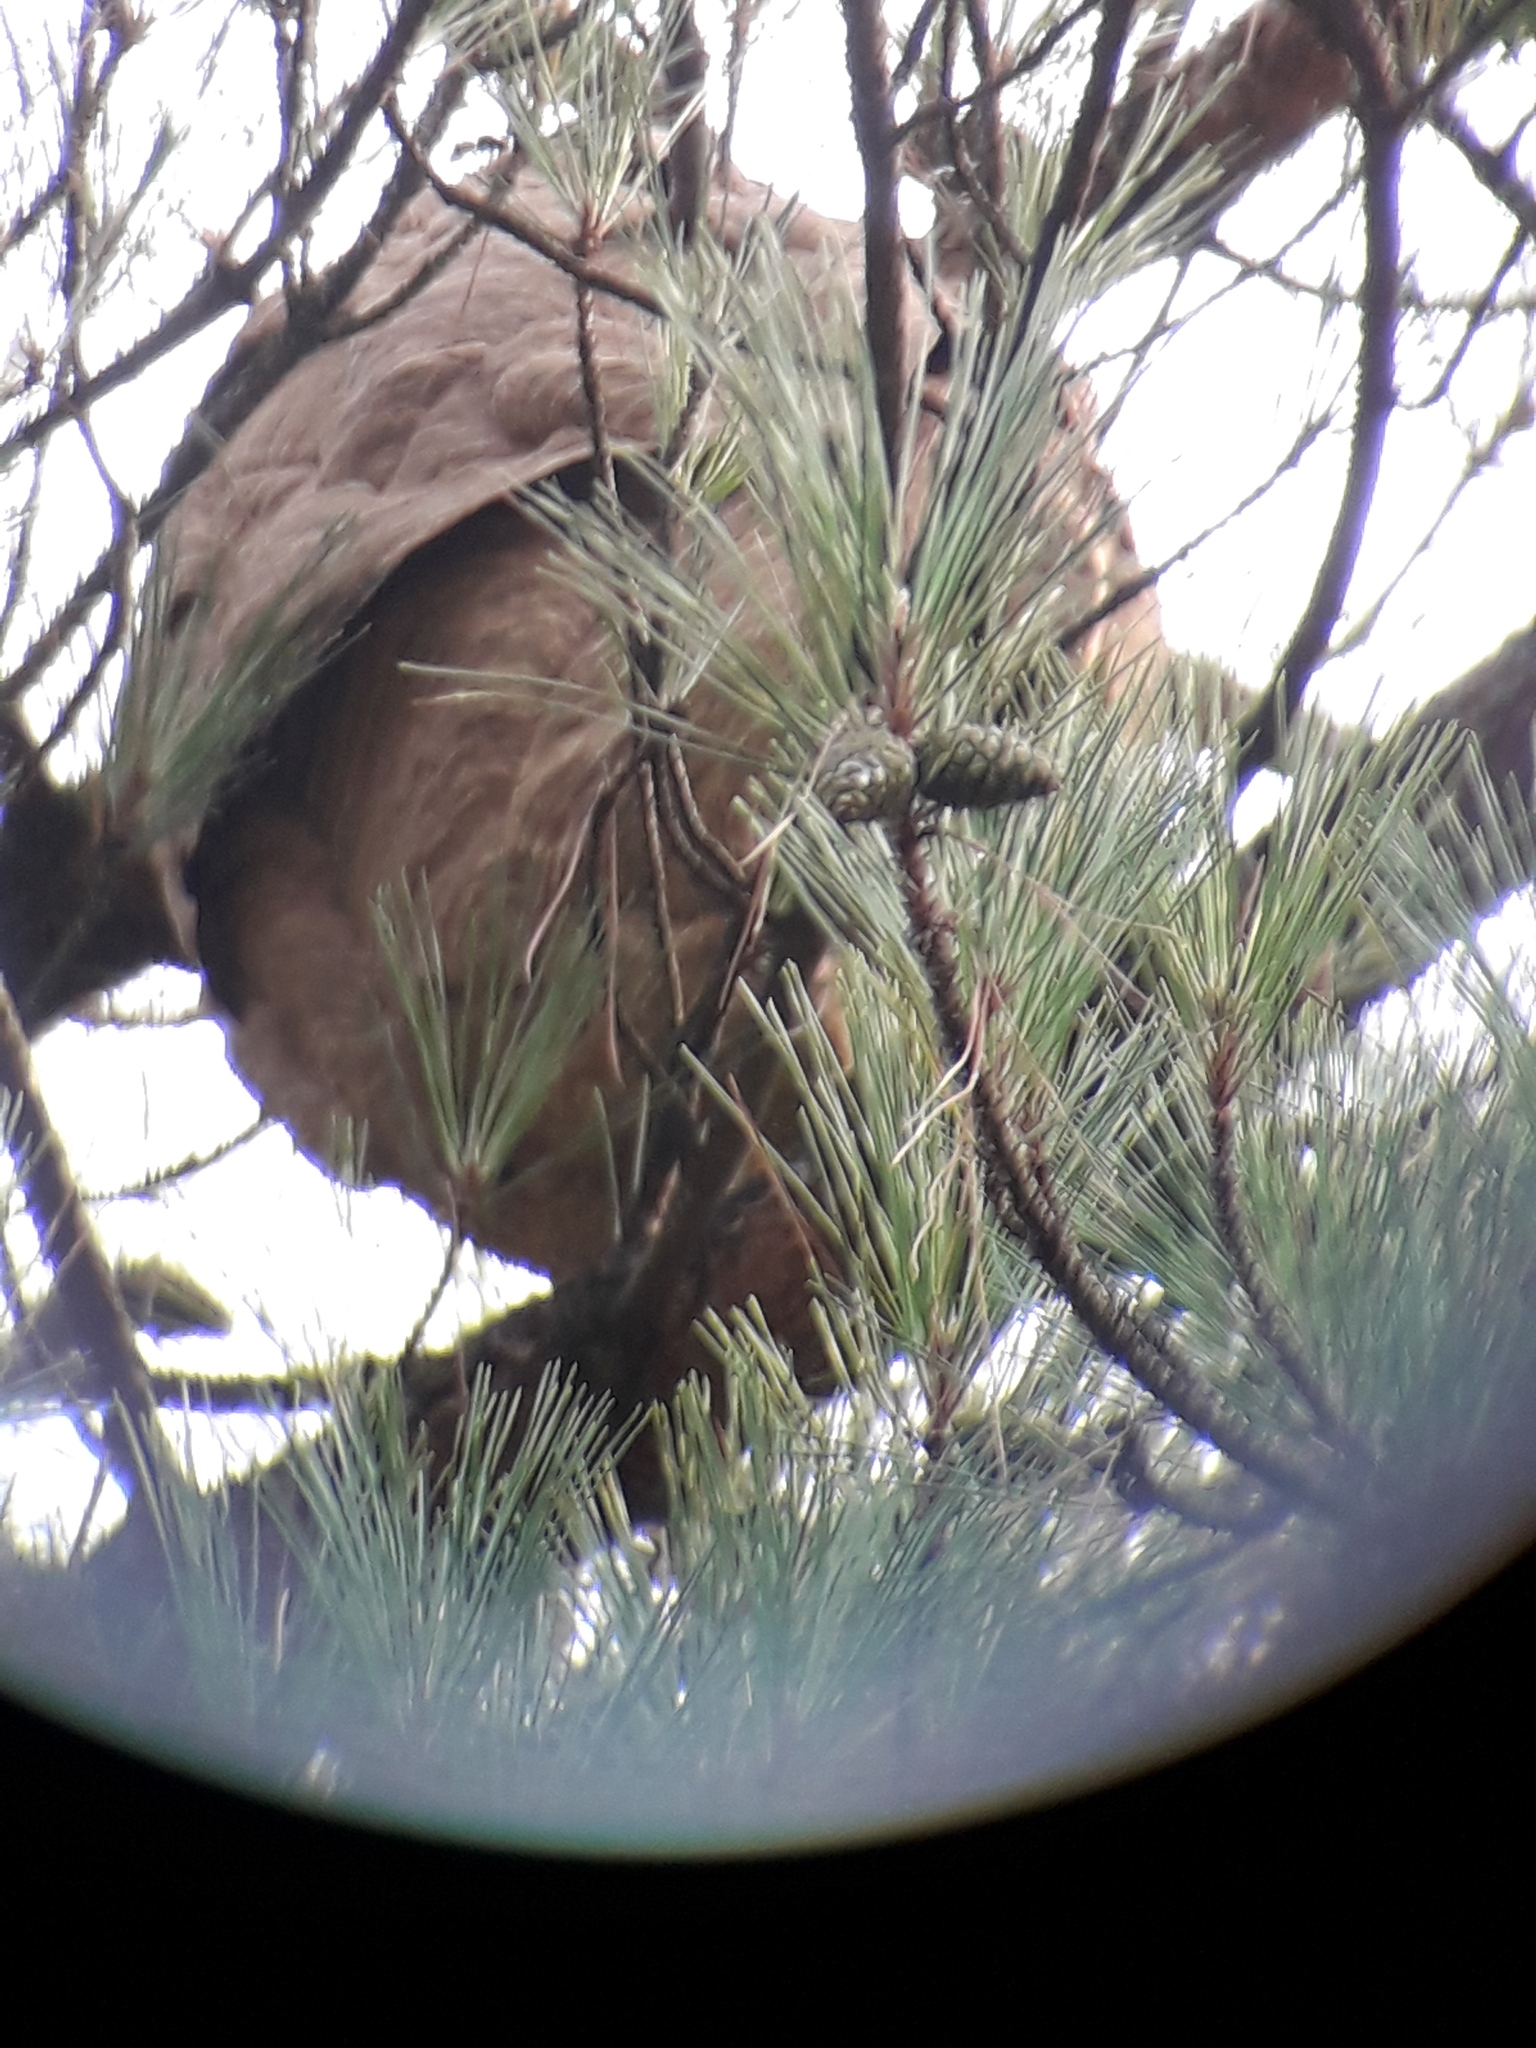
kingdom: Animalia
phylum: Arthropoda
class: Insecta
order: Hymenoptera
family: Vespidae
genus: Vespa
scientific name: Vespa velutina
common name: Asian hornet
